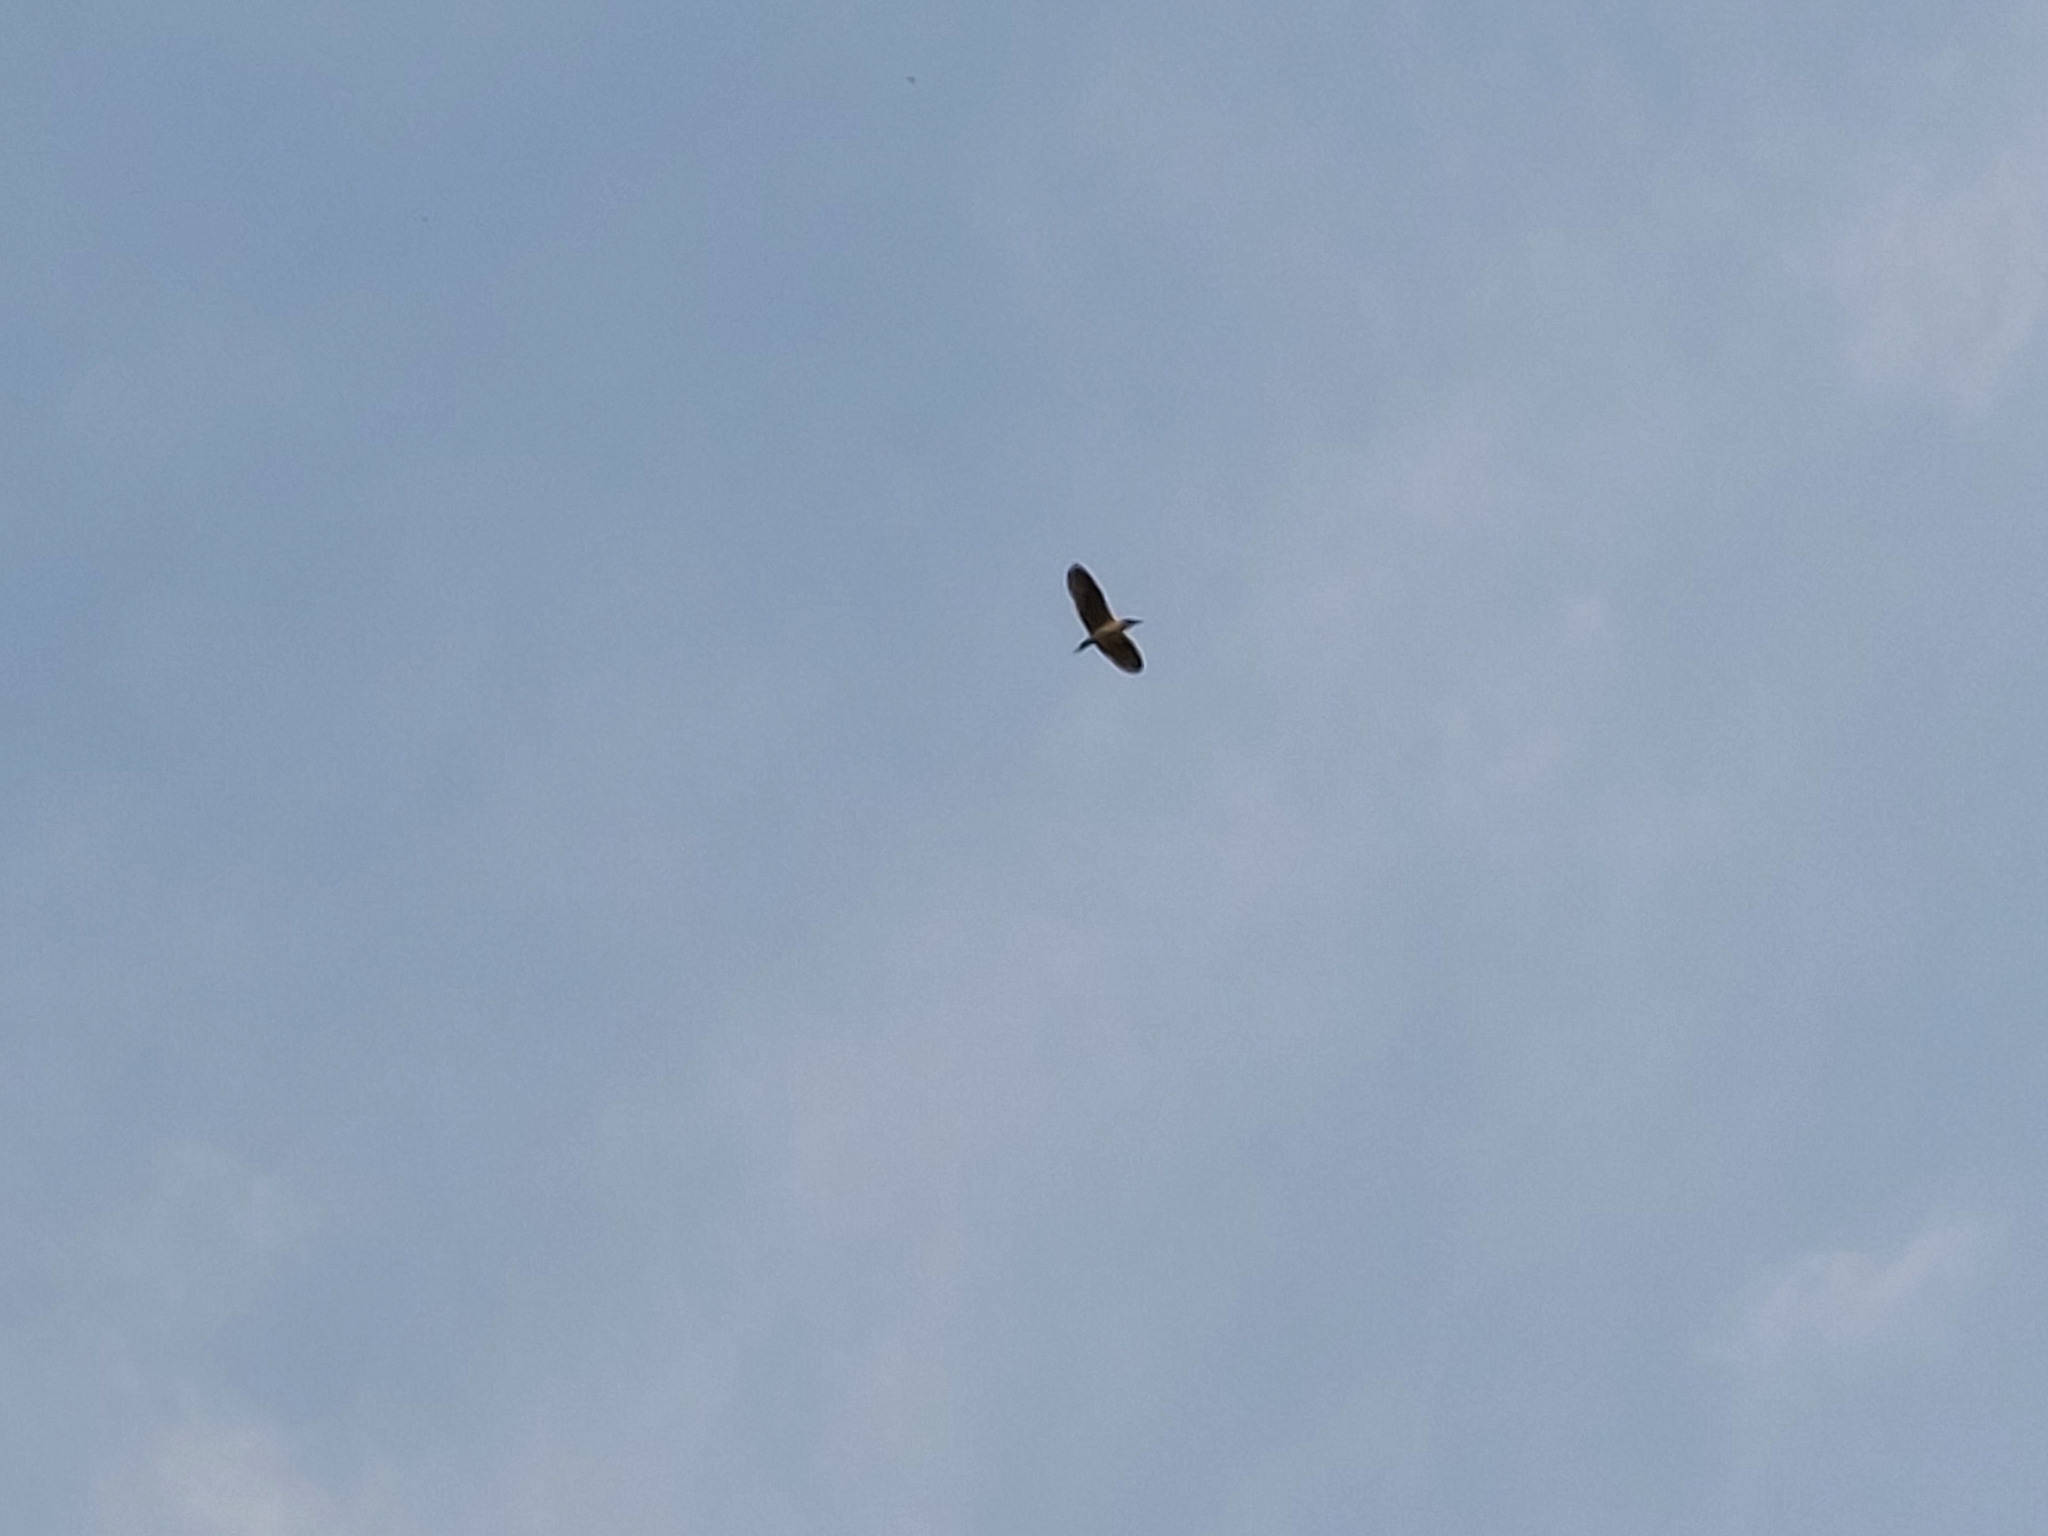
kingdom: Animalia
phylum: Chordata
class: Aves
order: Pelecaniformes
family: Ardeidae
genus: Nycticorax
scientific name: Nycticorax nycticorax
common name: Black-crowned night heron
